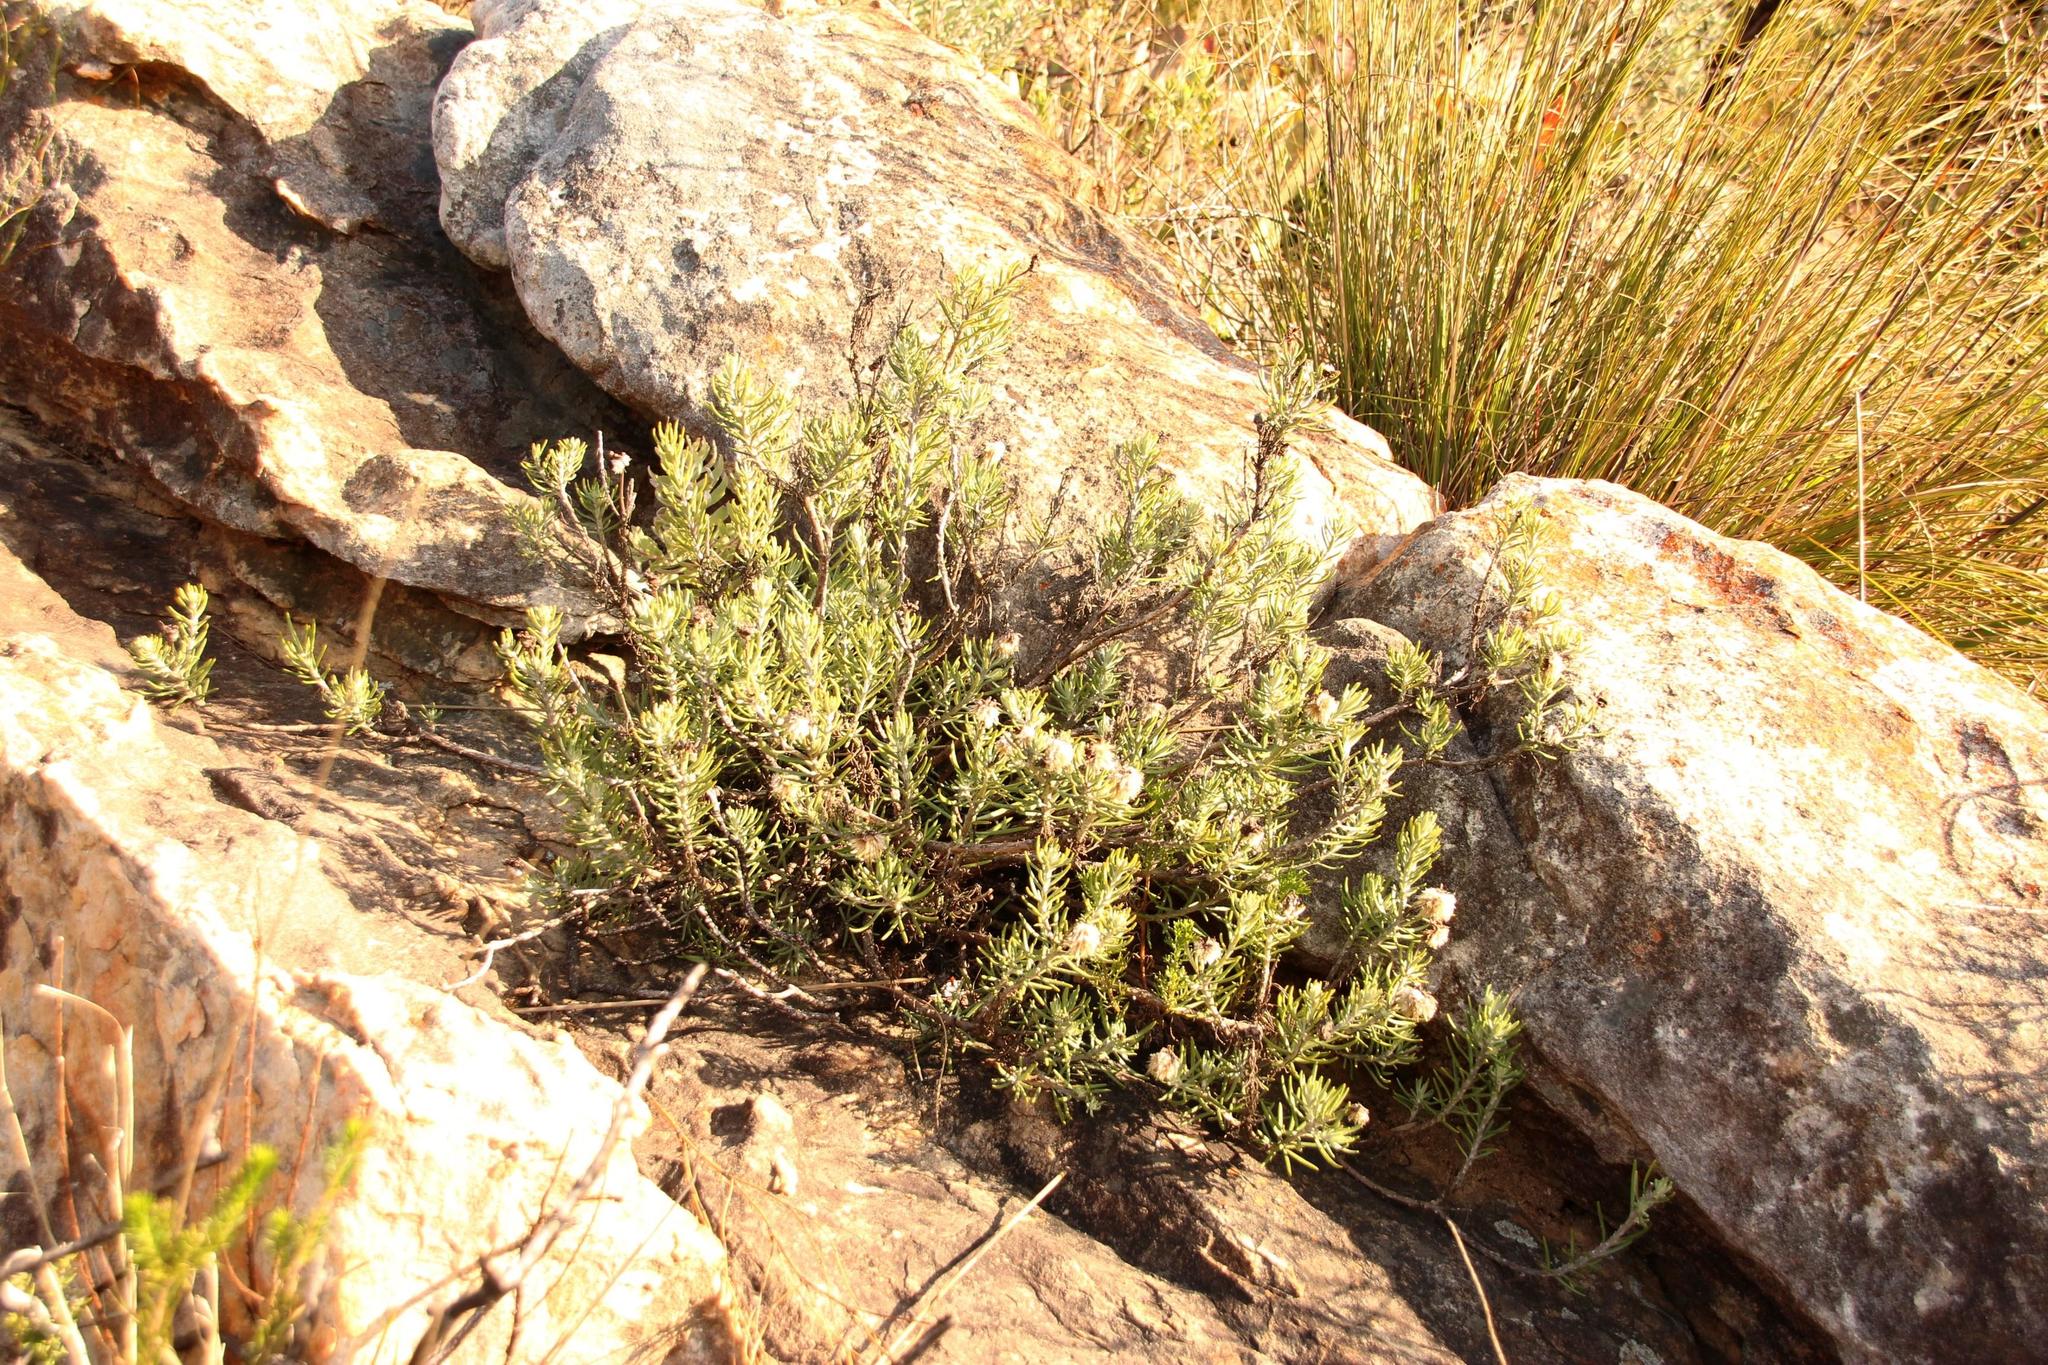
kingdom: Plantae
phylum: Tracheophyta
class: Magnoliopsida
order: Asterales
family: Asteraceae
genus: Heterolepis
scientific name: Heterolepis aliena
